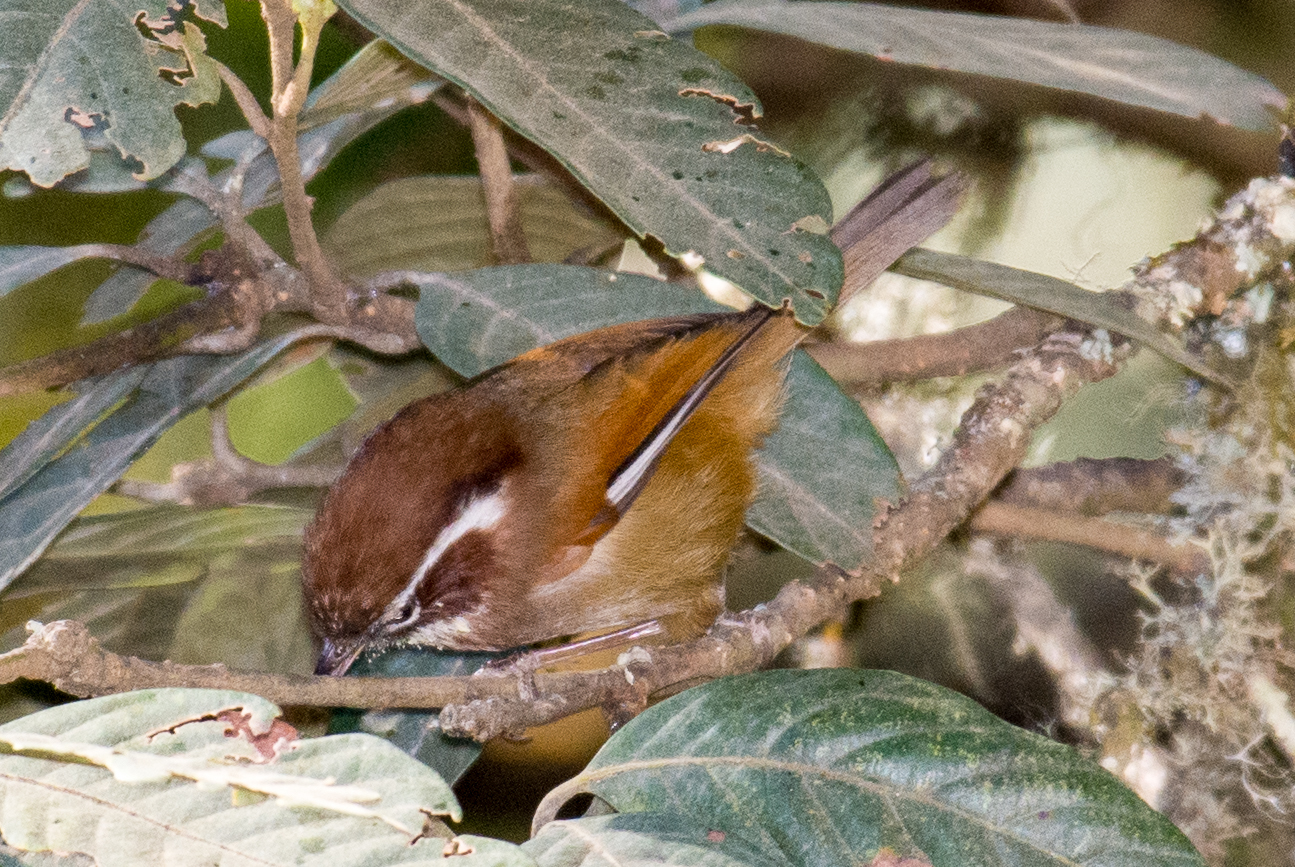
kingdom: Animalia
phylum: Chordata
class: Aves
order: Passeriformes
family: Sylviidae
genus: Fulvetta
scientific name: Fulvetta vinipectus
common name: White-browed fulvetta
